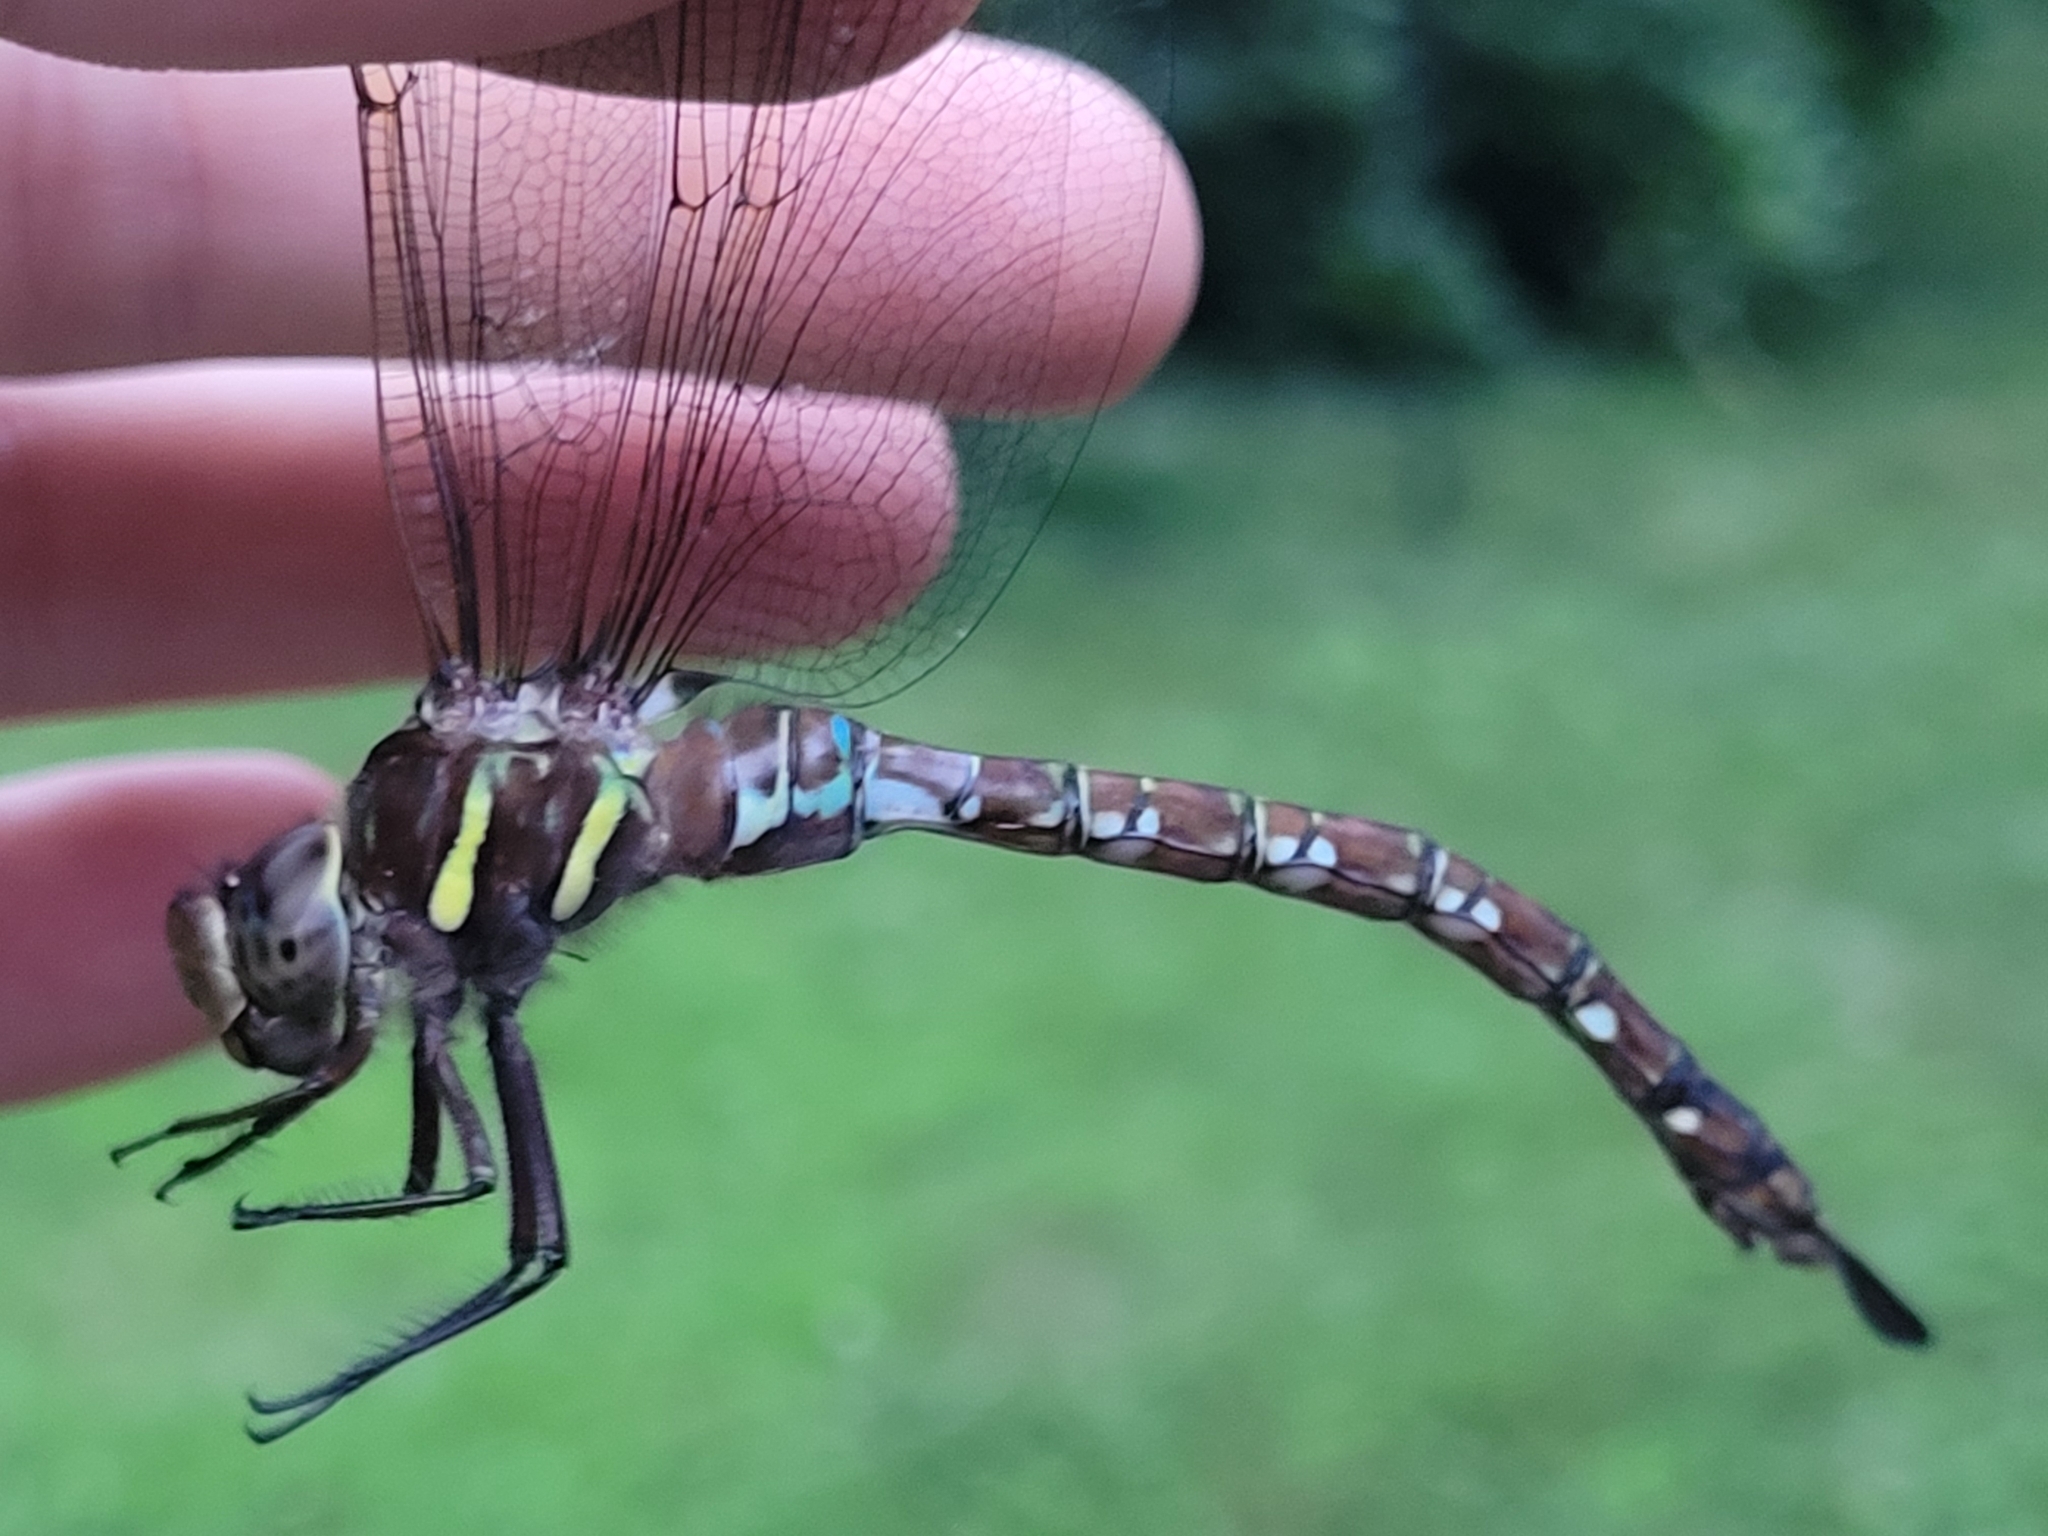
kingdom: Animalia
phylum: Arthropoda
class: Insecta
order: Odonata
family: Aeshnidae
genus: Aeshna
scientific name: Aeshna umbrosa
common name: Shadow darner
